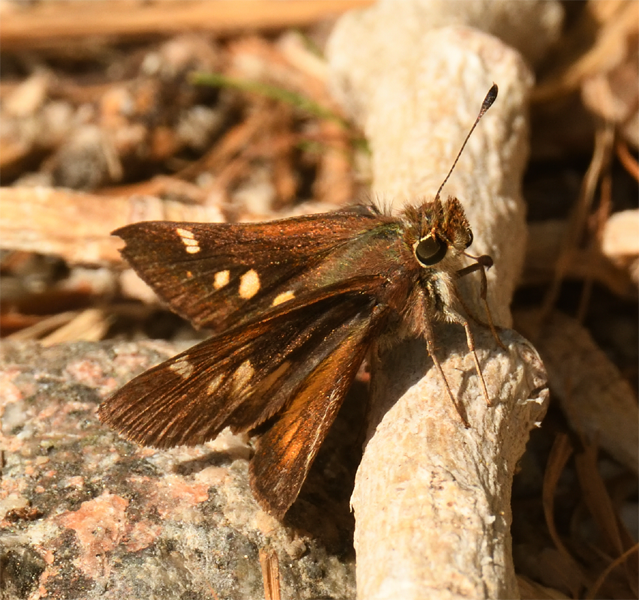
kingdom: Animalia
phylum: Arthropoda
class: Insecta
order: Lepidoptera
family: Hesperiidae
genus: Lon
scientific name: Lon melane
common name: Umber skipper
